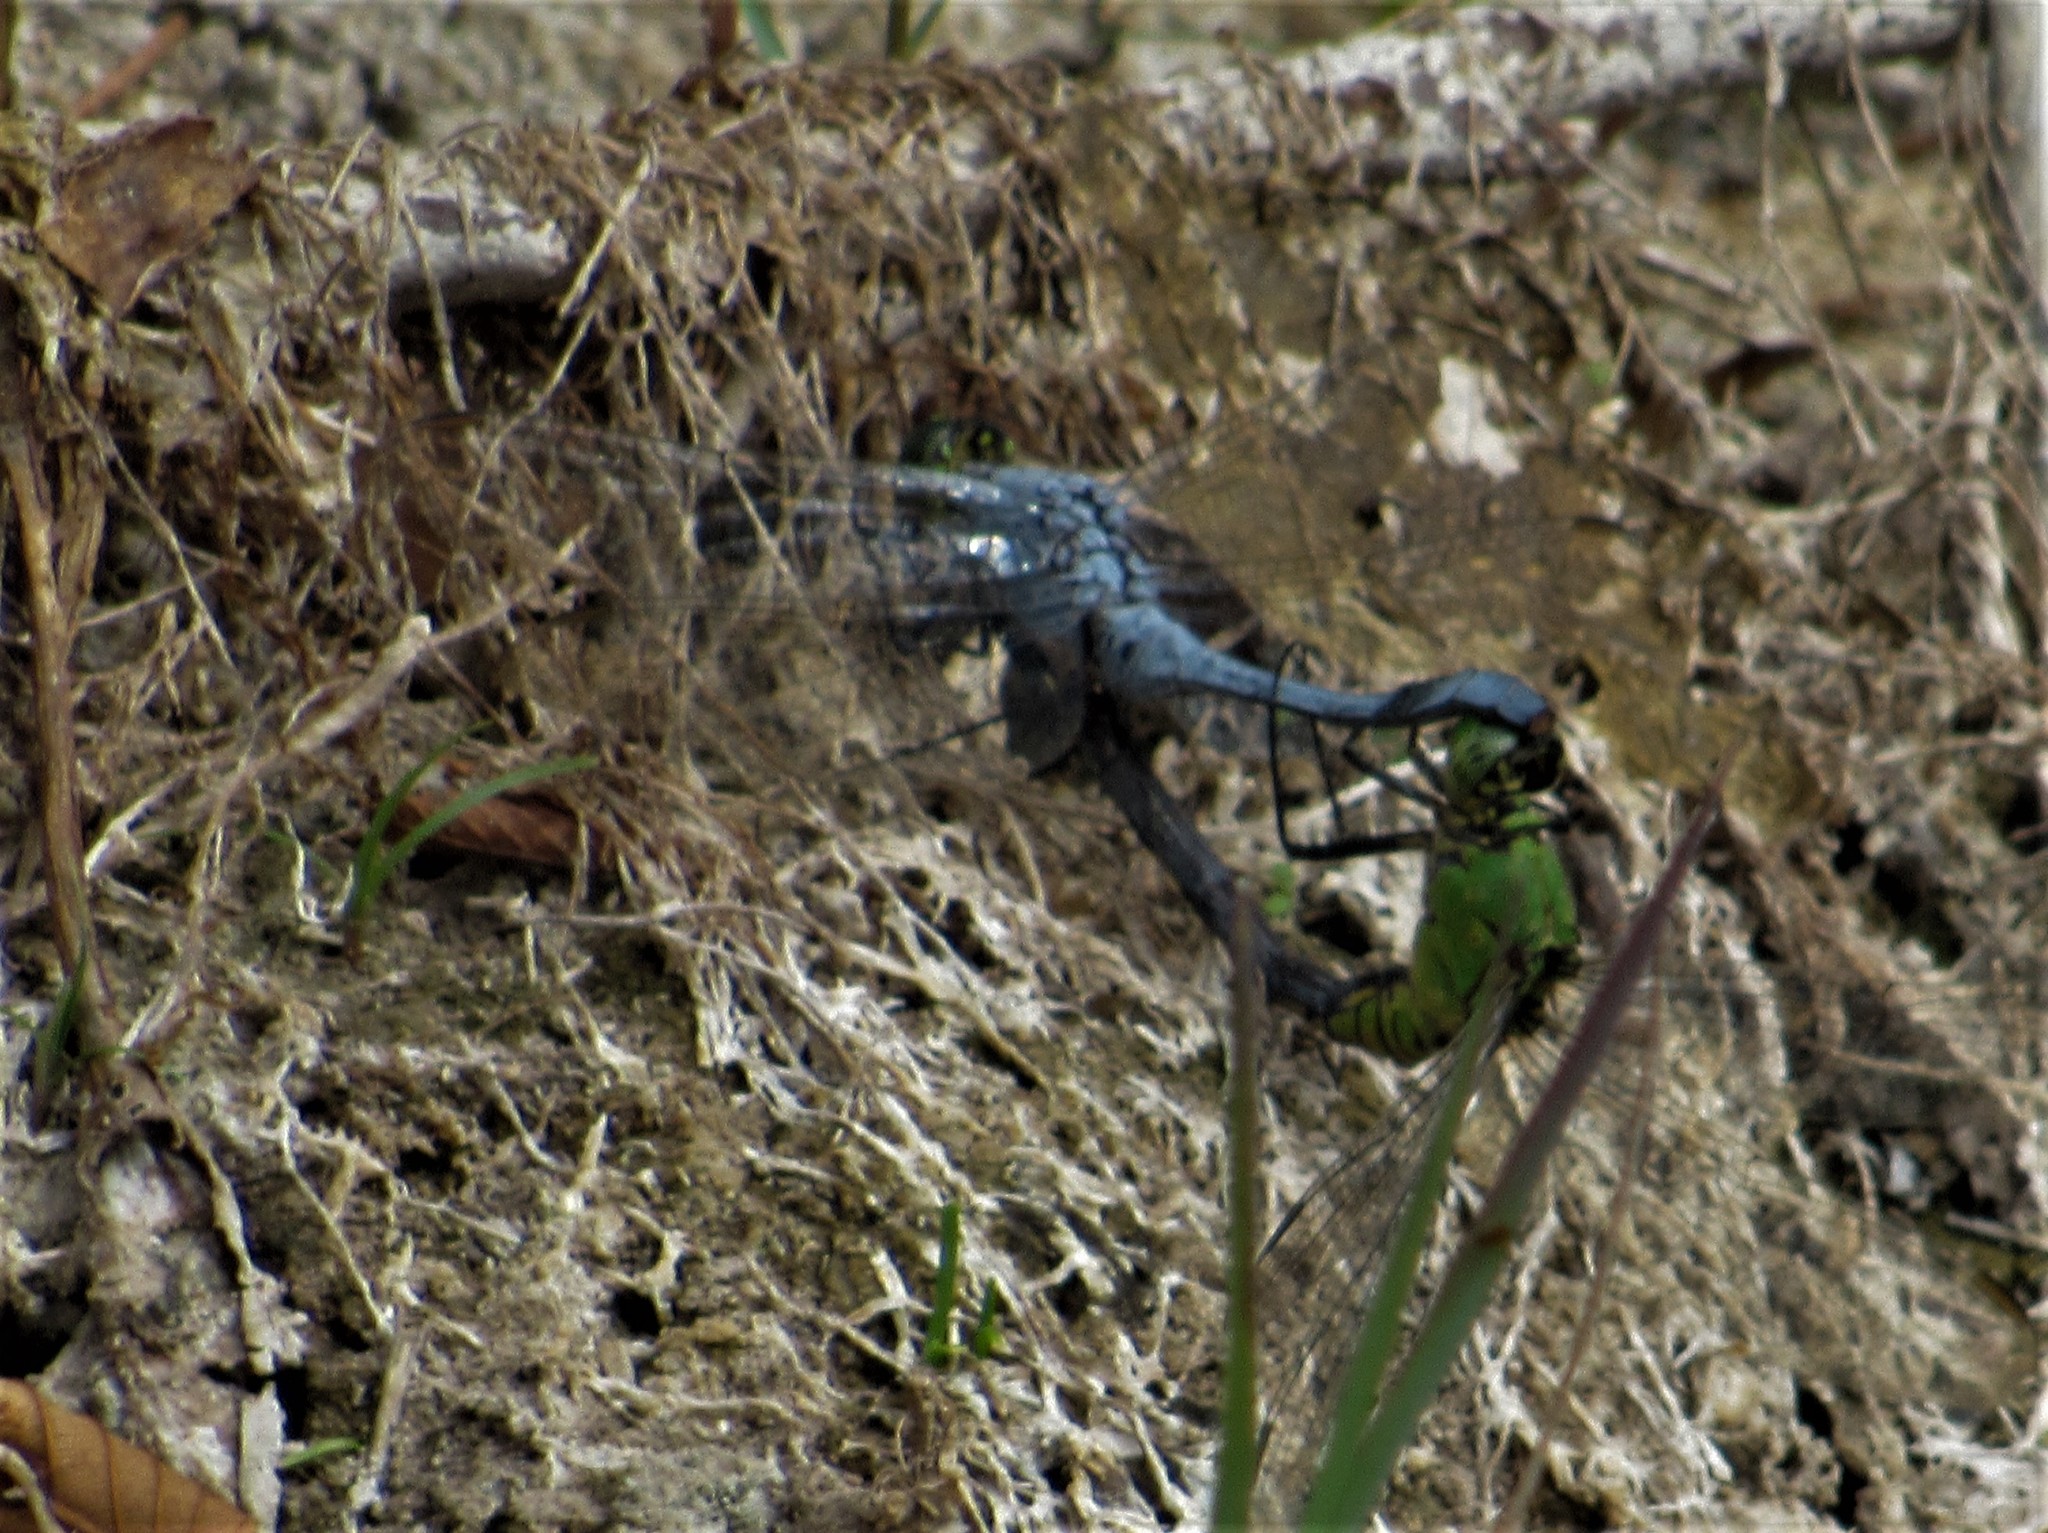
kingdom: Animalia
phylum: Arthropoda
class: Insecta
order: Odonata
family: Libellulidae
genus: Erythemis
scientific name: Erythemis simplicicollis
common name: Eastern pondhawk
